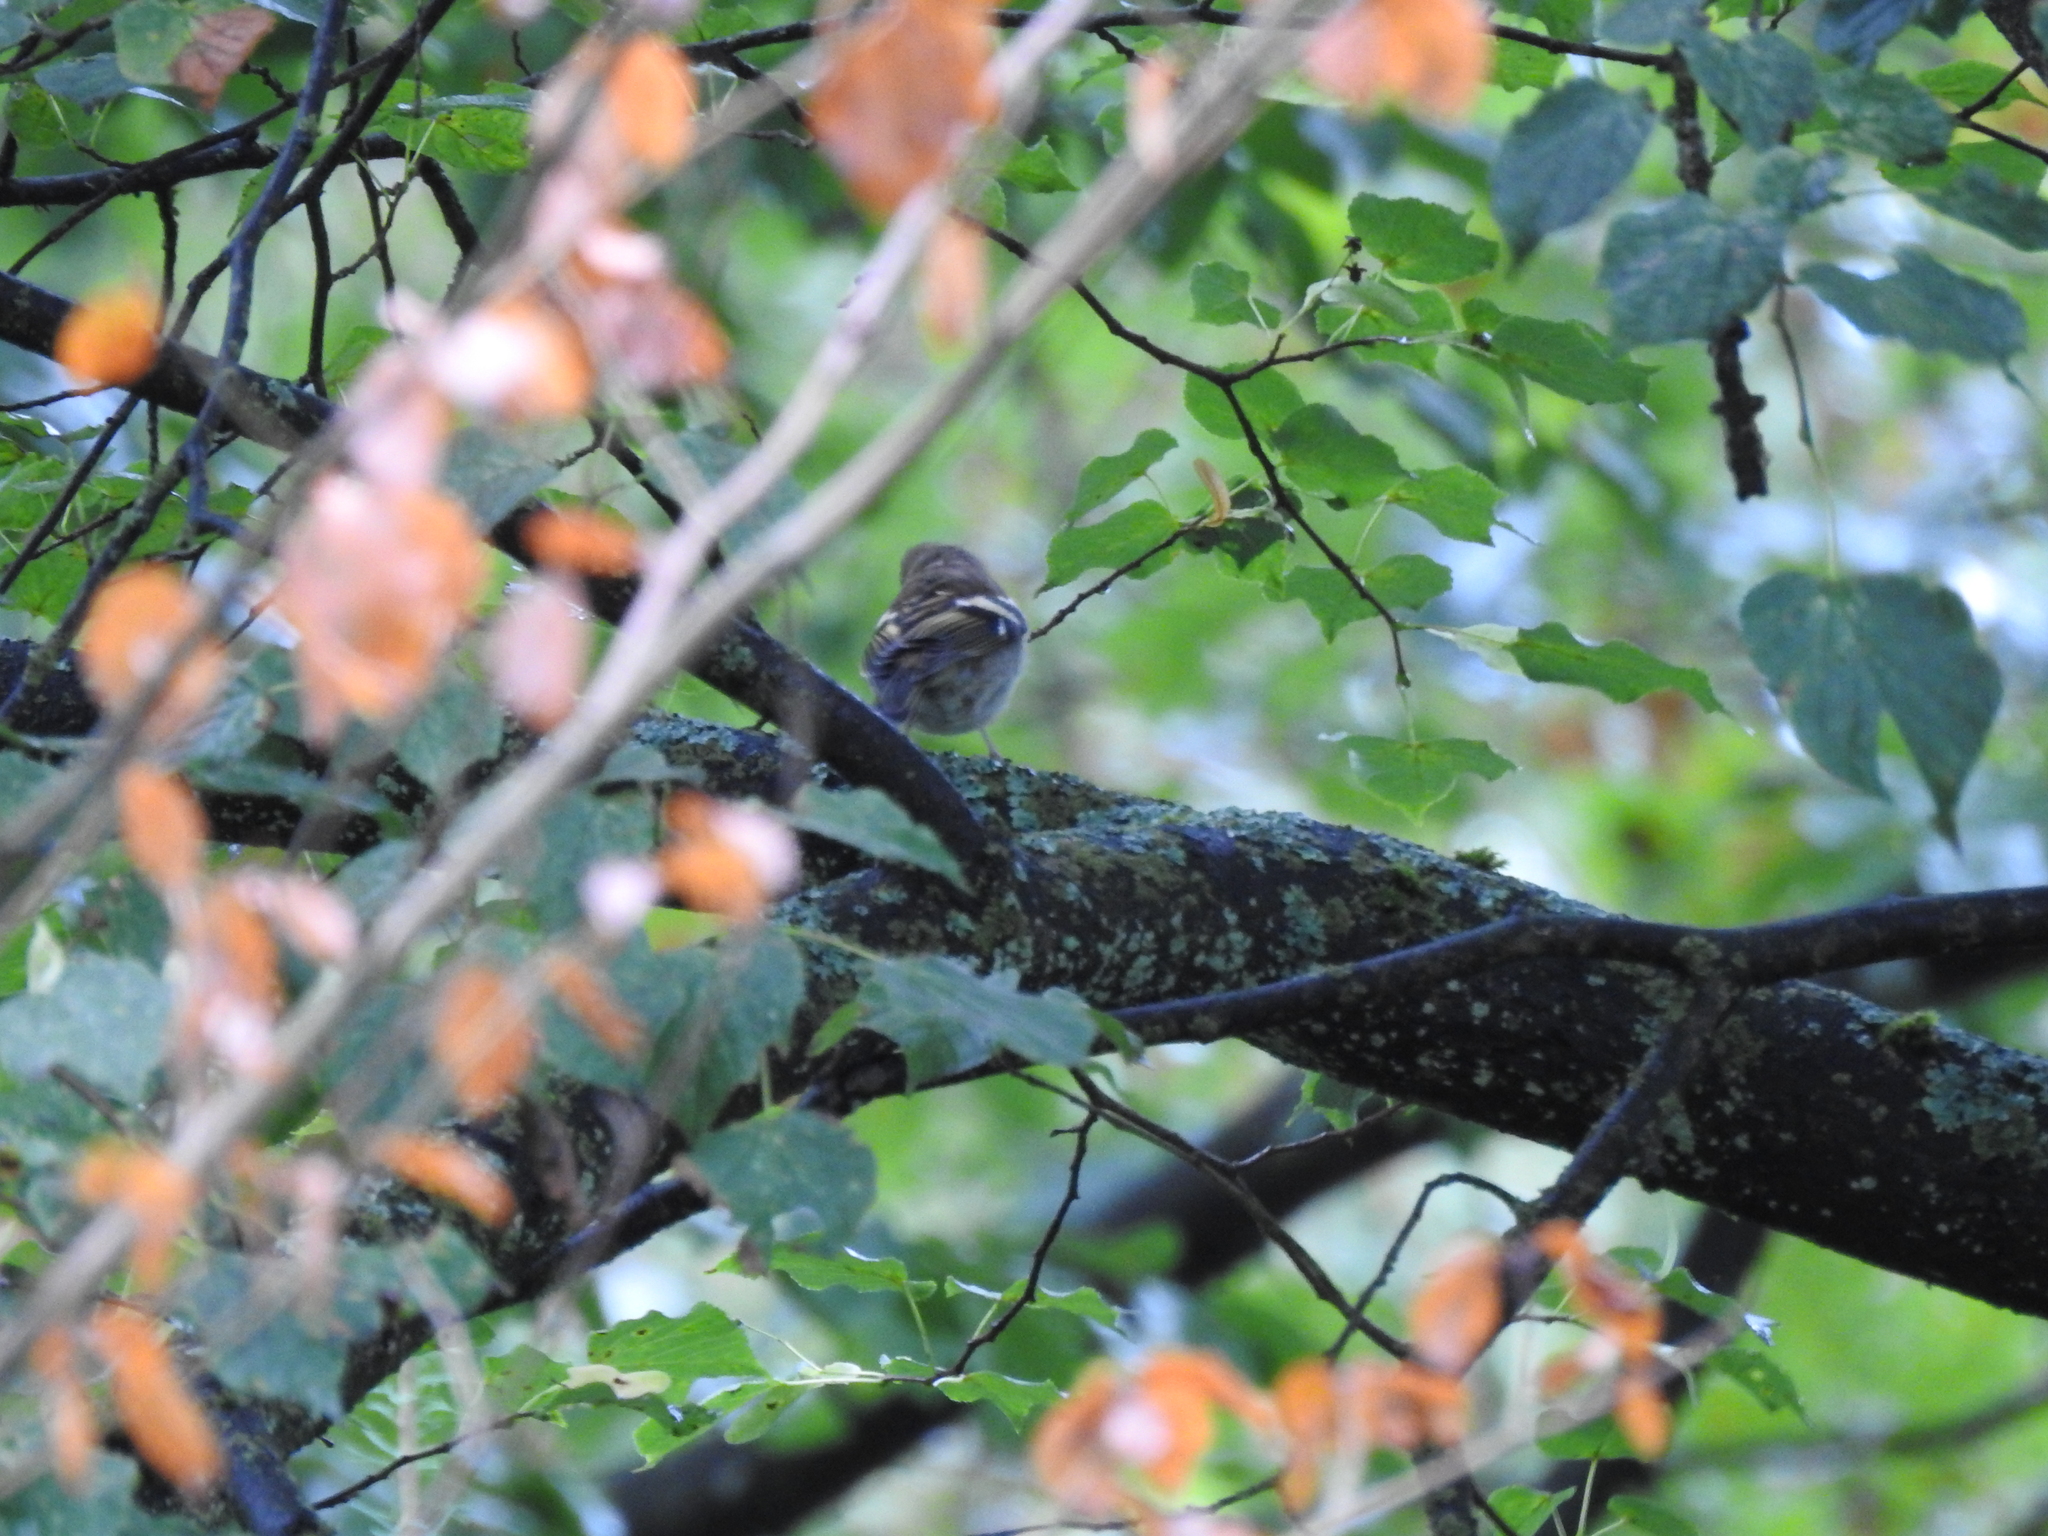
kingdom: Animalia
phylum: Chordata
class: Aves
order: Passeriformes
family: Fringillidae
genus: Fringilla
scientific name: Fringilla coelebs
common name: Common chaffinch
